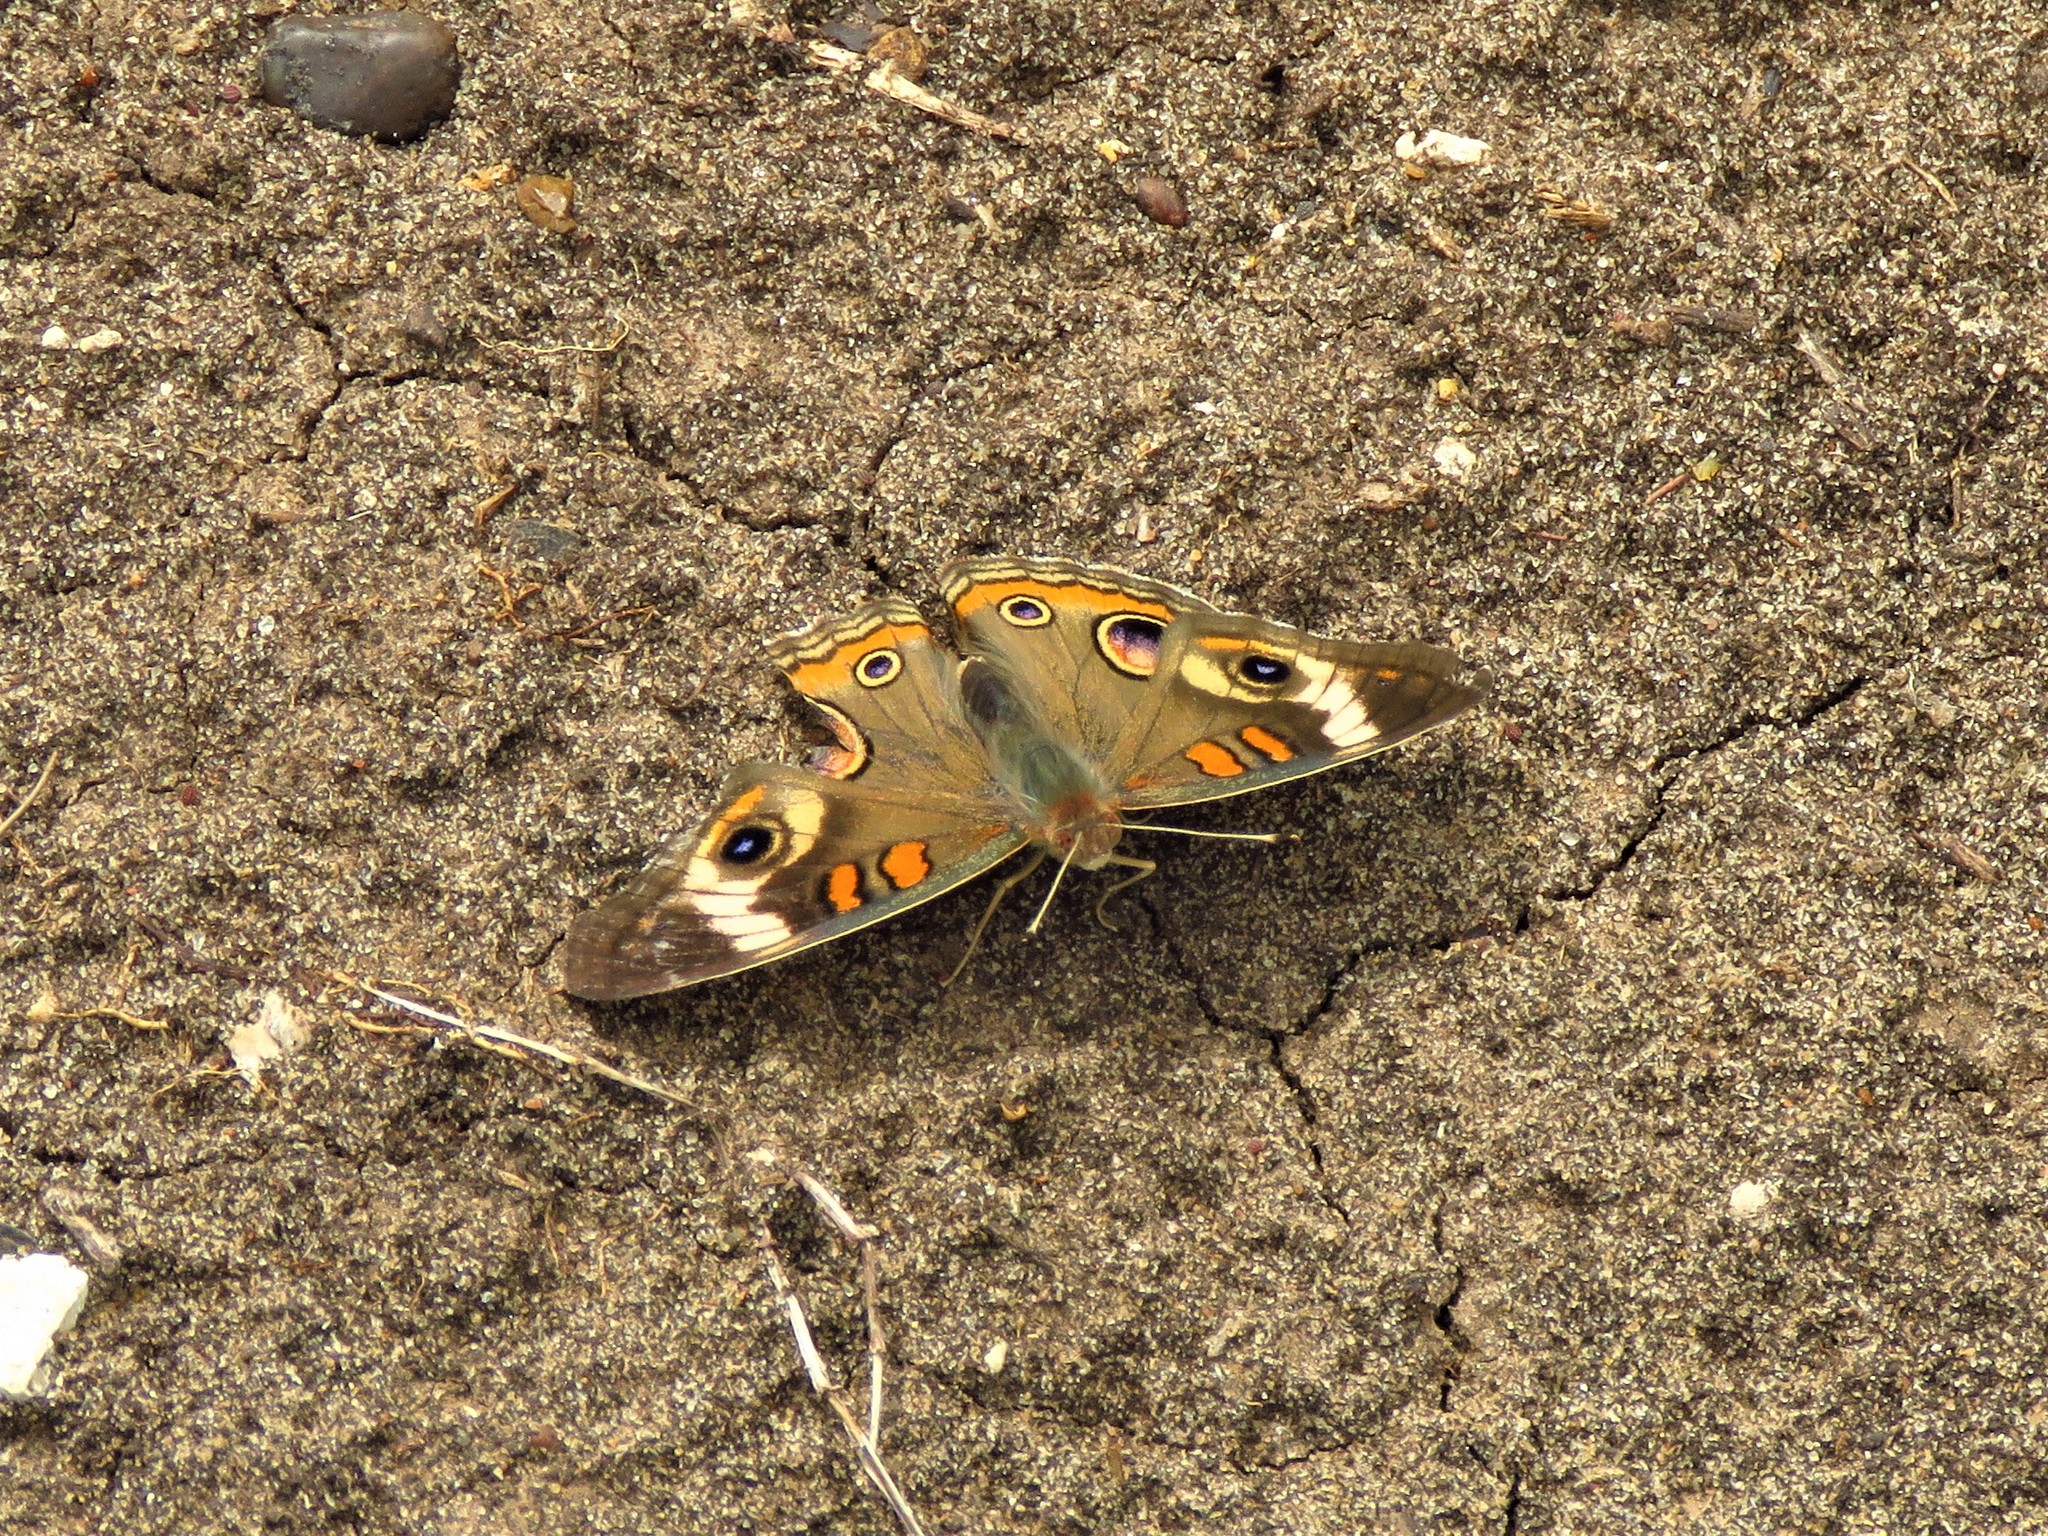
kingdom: Animalia
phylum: Arthropoda
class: Insecta
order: Lepidoptera
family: Nymphalidae
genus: Junonia
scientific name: Junonia coenia
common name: Common buckeye
